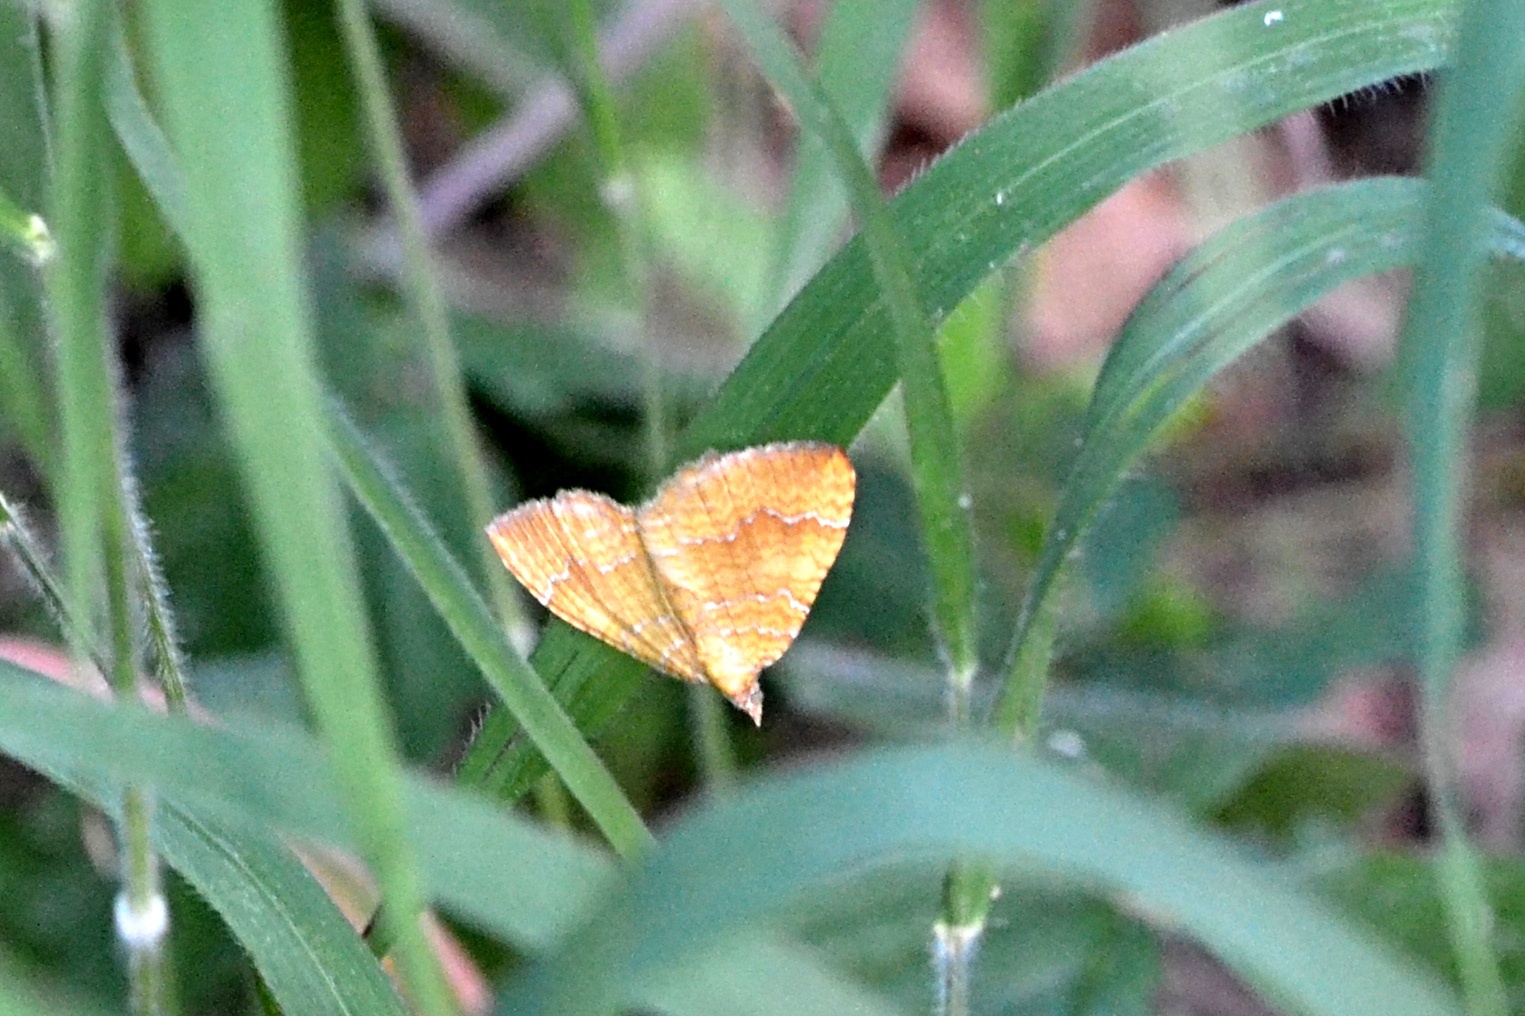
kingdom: Animalia
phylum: Arthropoda
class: Insecta
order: Lepidoptera
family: Geometridae
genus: Camptogramma
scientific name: Camptogramma bilineata
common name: Yellow shell
